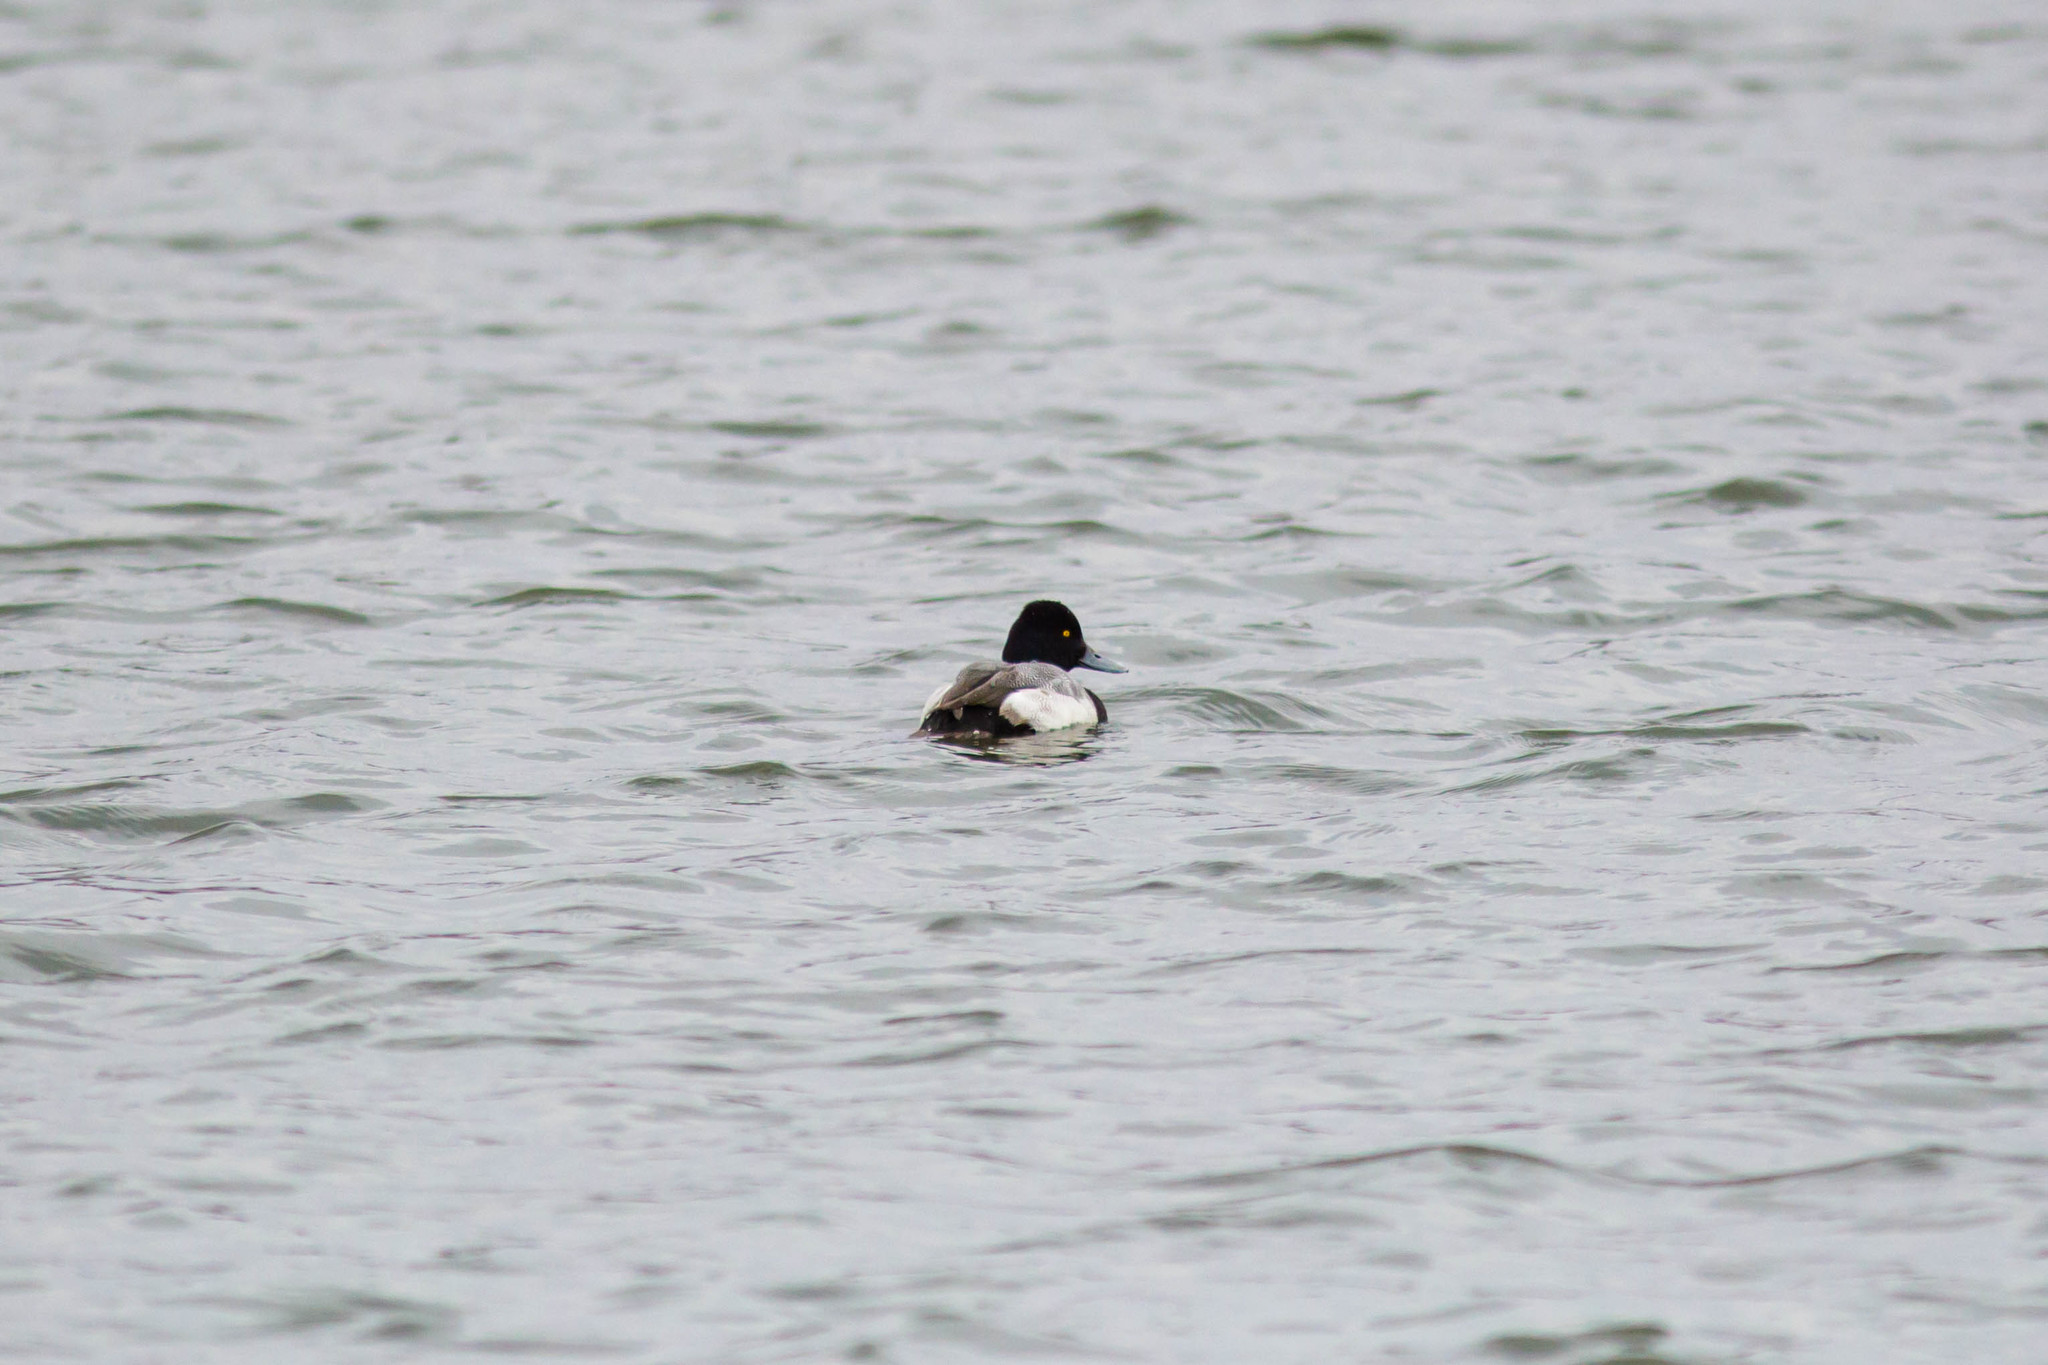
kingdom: Animalia
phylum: Chordata
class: Aves
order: Anseriformes
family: Anatidae
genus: Aythya
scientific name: Aythya affinis
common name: Lesser scaup
